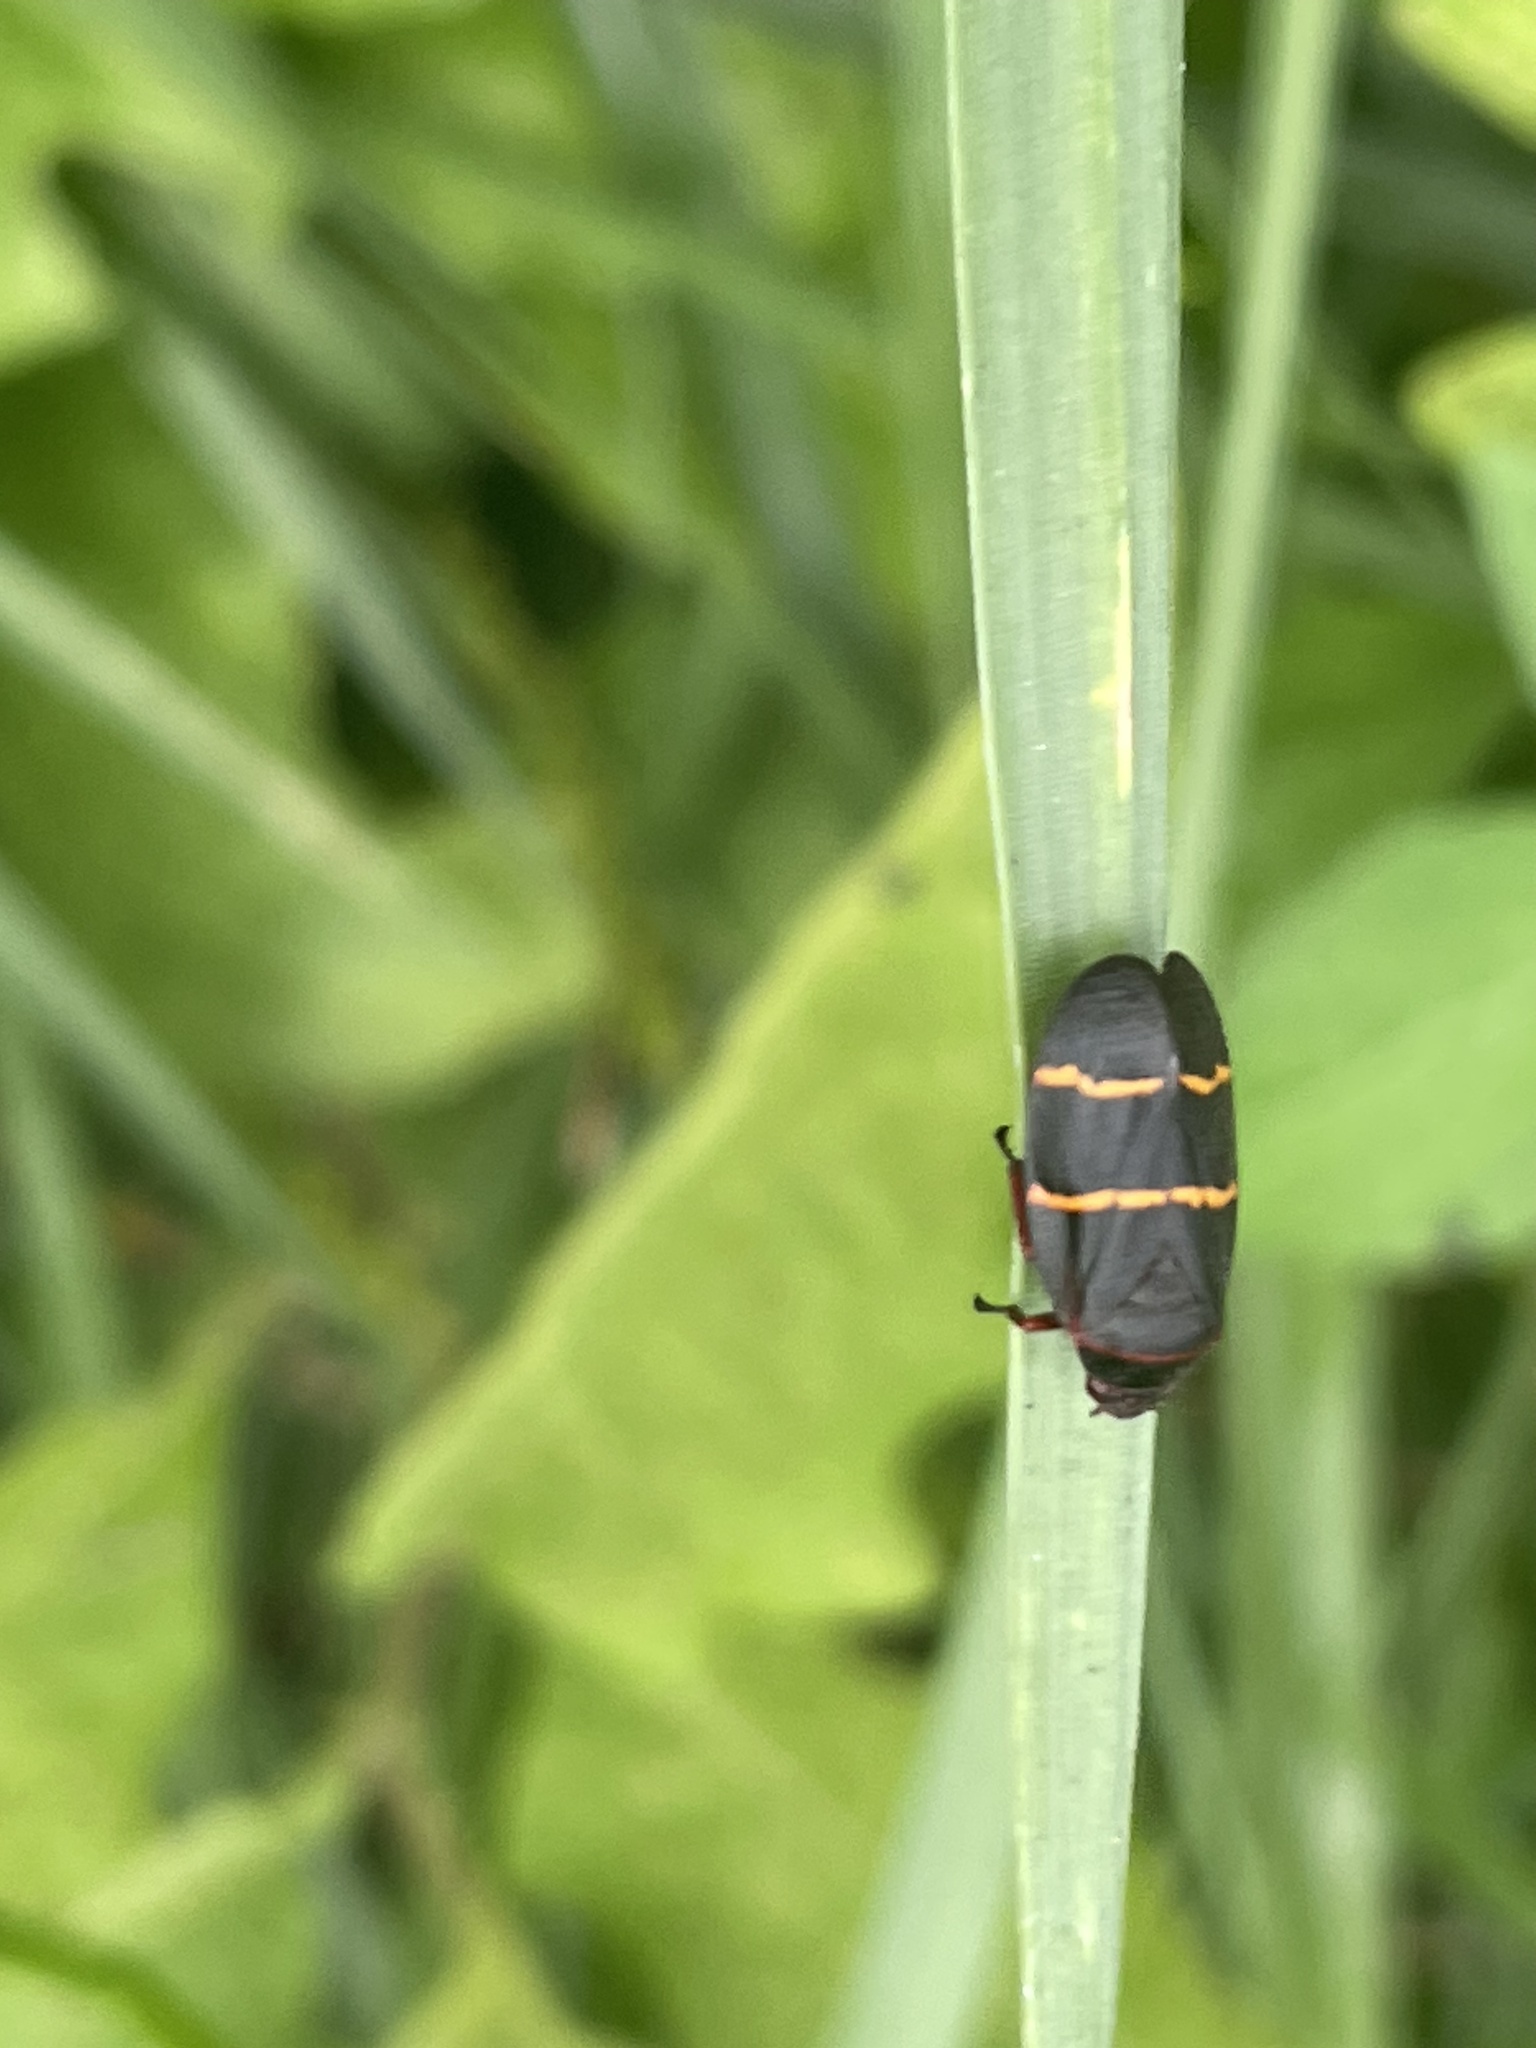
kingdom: Animalia
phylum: Arthropoda
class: Insecta
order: Hemiptera
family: Cercopidae
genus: Prosapia
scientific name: Prosapia bicincta
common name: Twolined spittlebug
